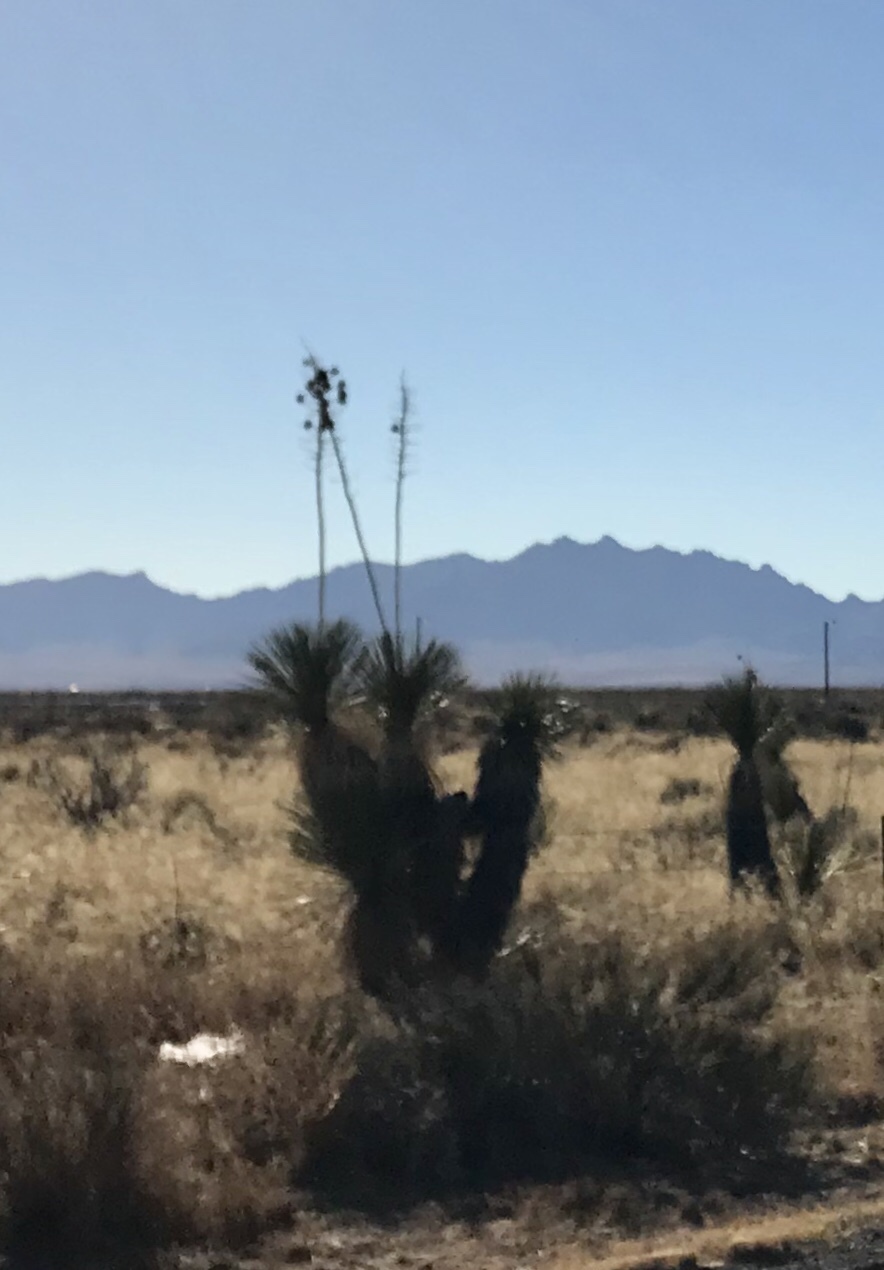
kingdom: Plantae
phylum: Tracheophyta
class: Liliopsida
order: Asparagales
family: Asparagaceae
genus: Yucca
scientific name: Yucca elata
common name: Palmella
